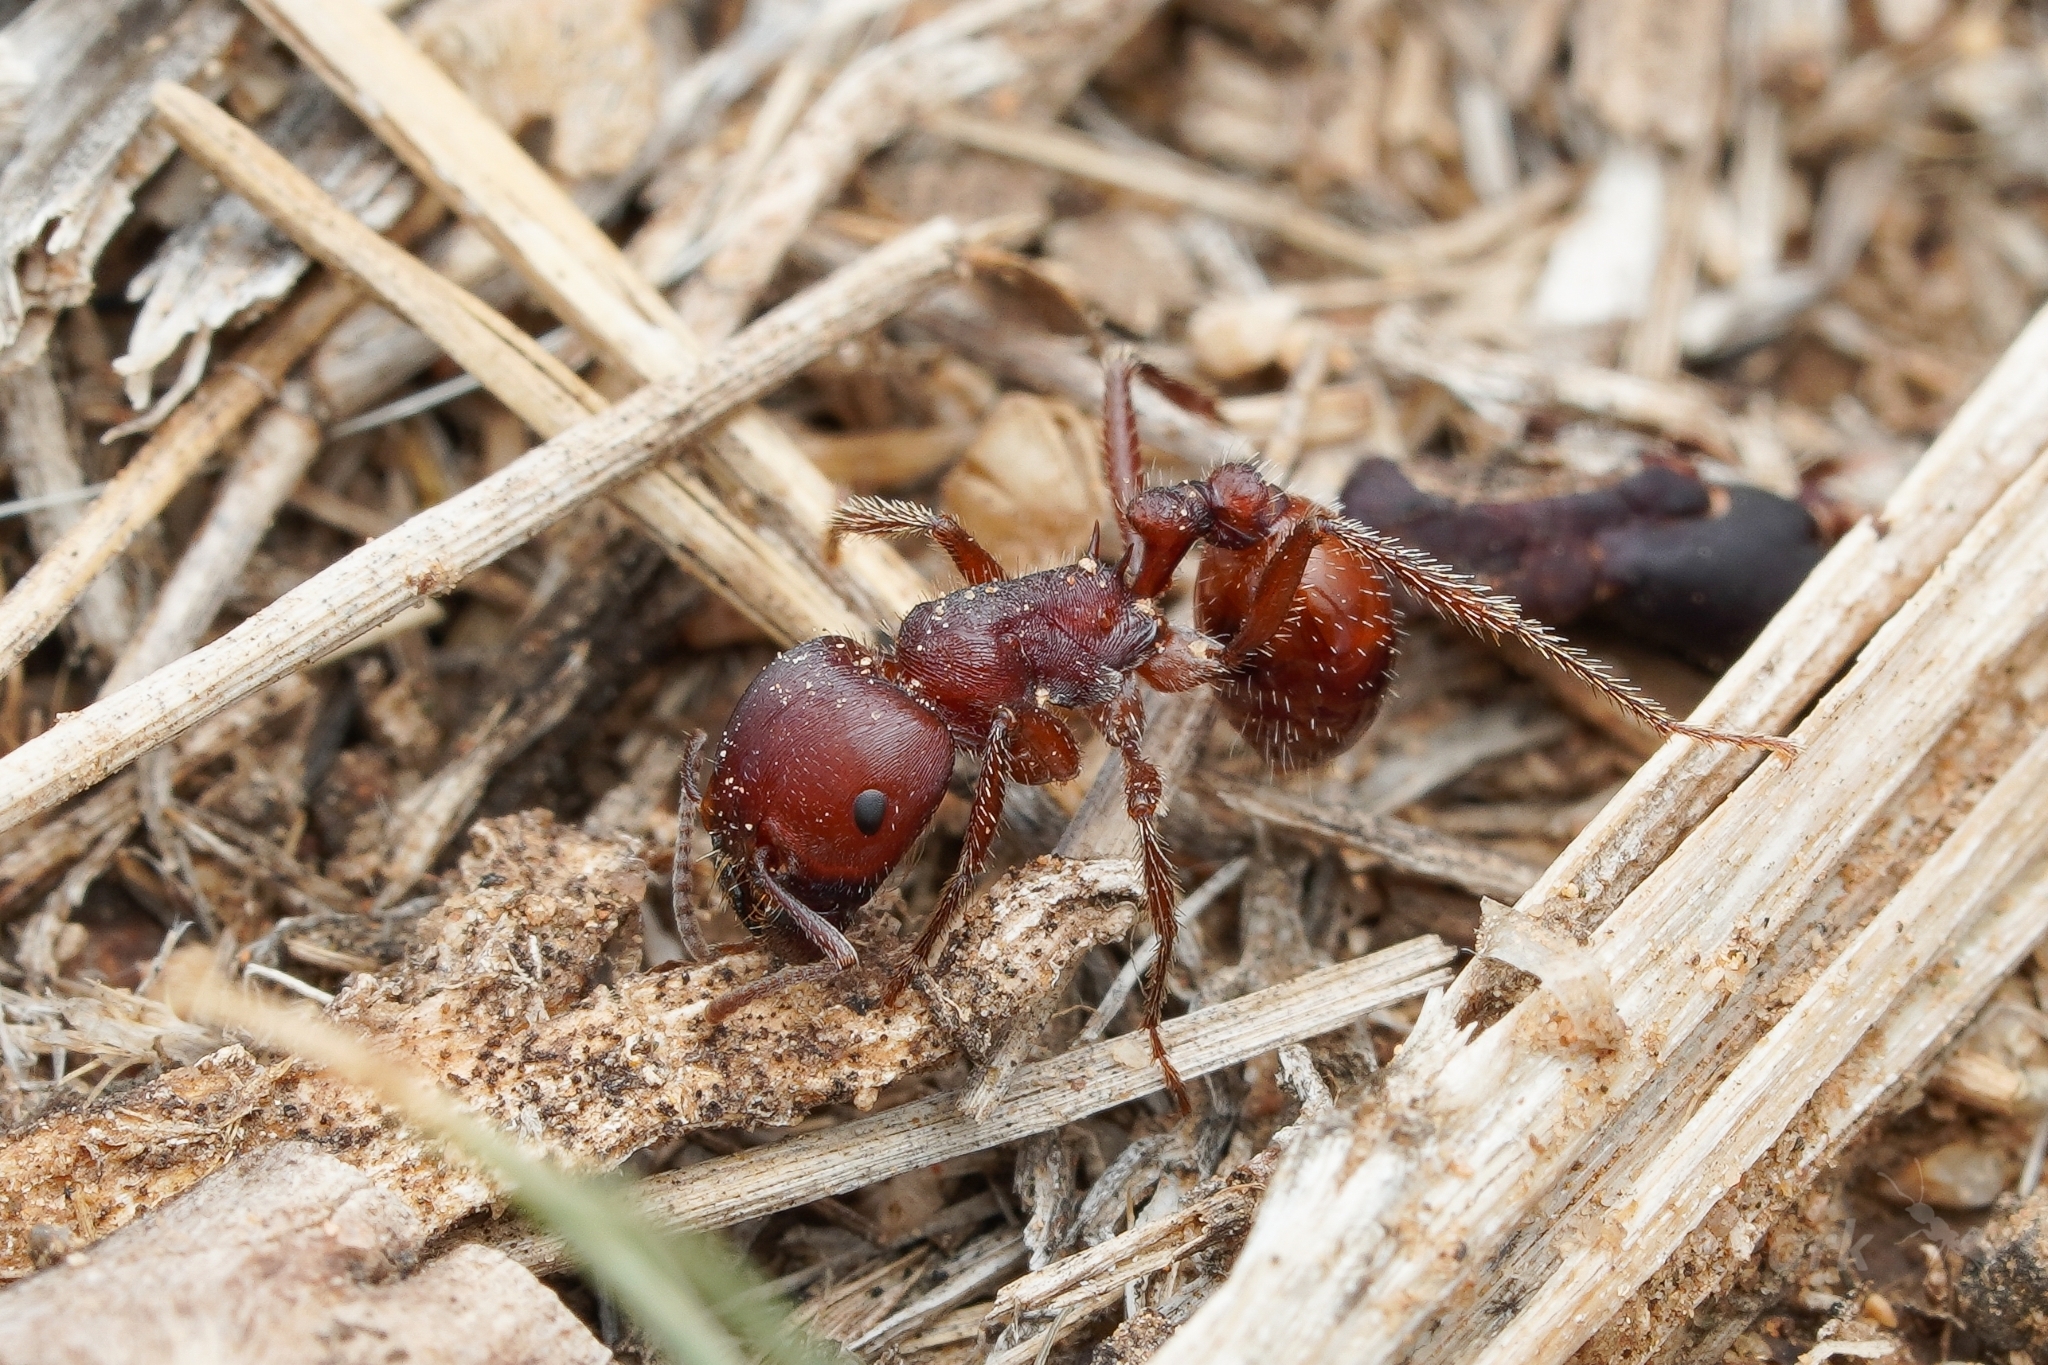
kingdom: Animalia
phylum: Arthropoda
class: Insecta
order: Hymenoptera
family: Formicidae
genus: Pogonomyrmex
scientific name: Pogonomyrmex barbatus
